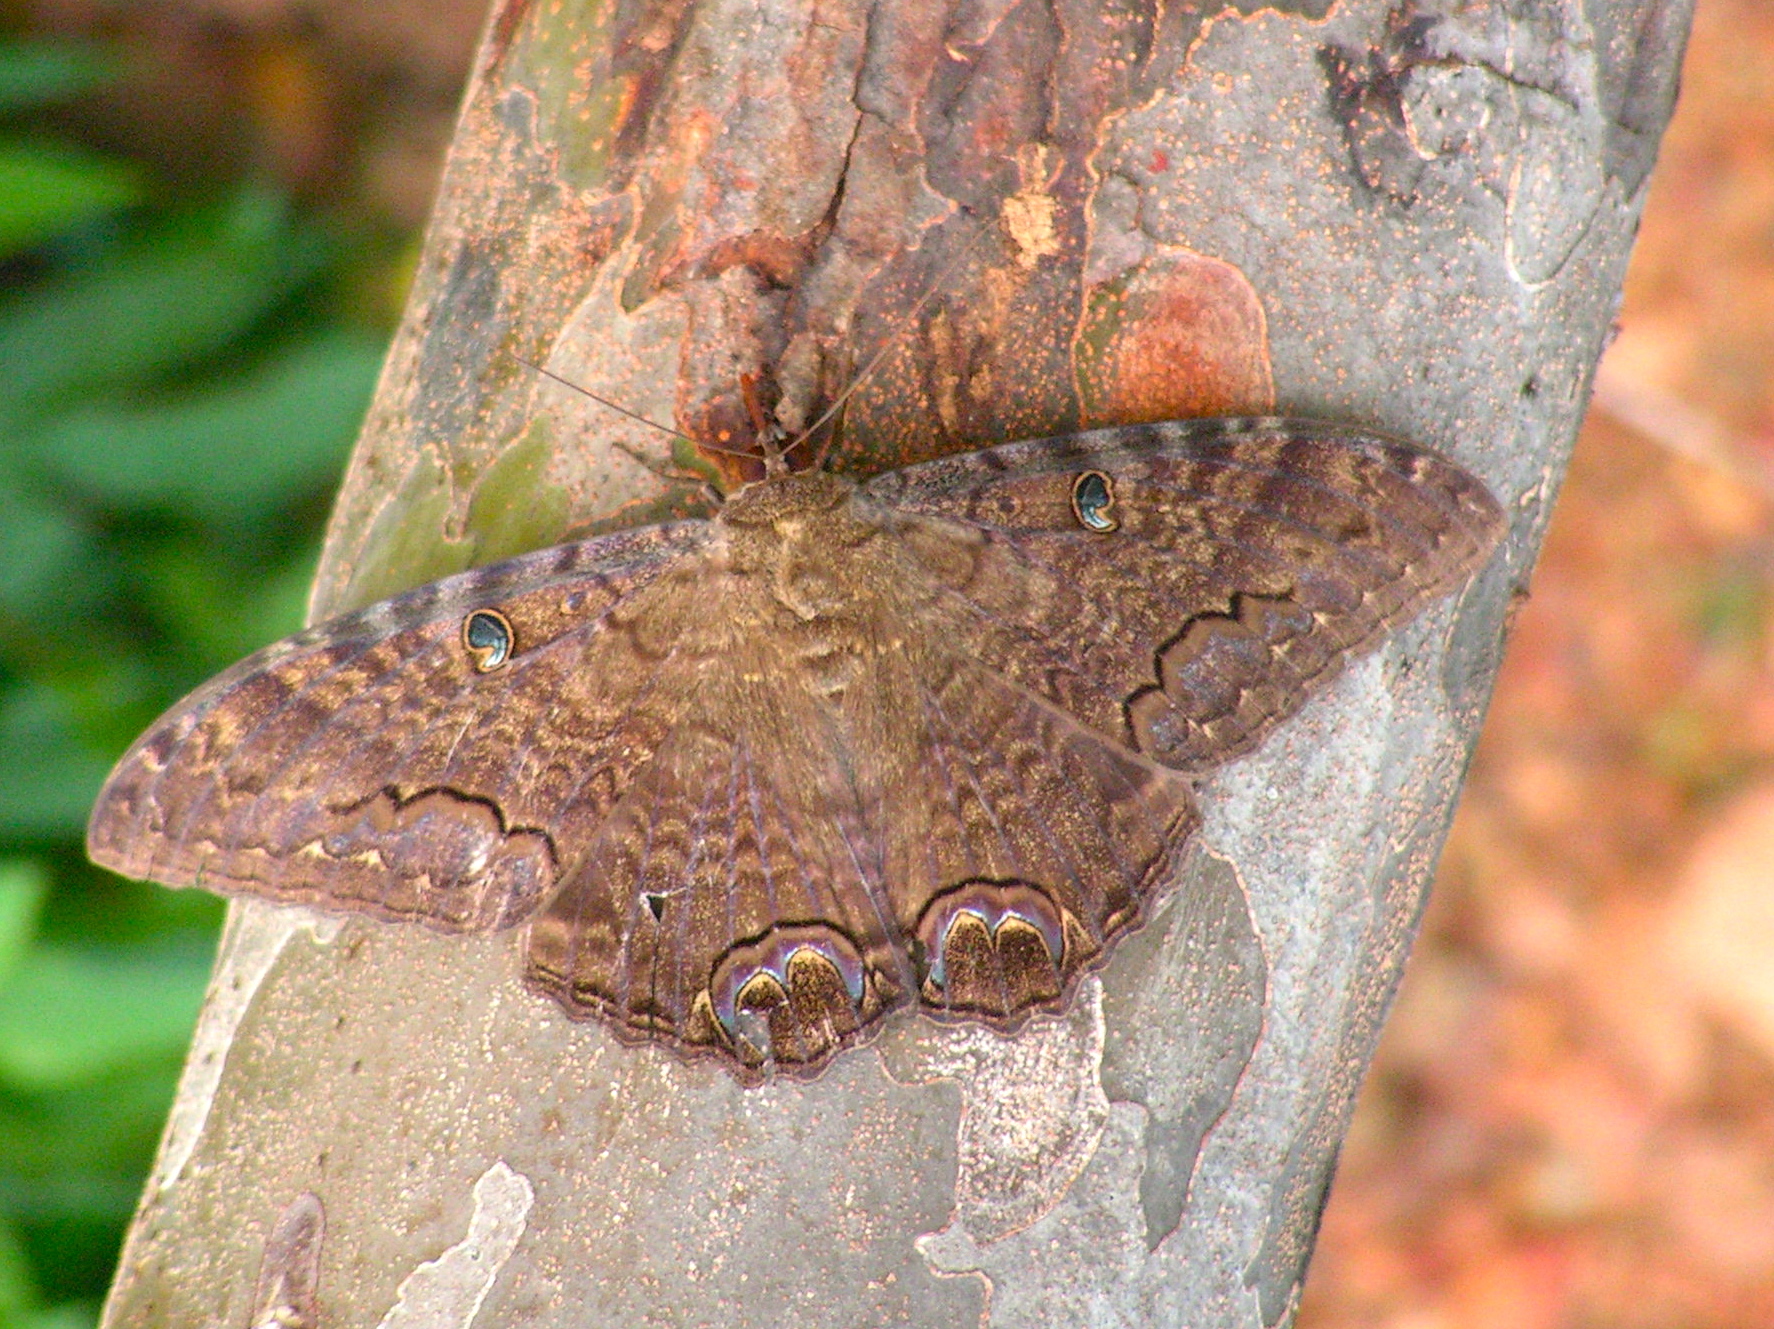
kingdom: Animalia
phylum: Arthropoda
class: Insecta
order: Lepidoptera
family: Erebidae
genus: Ascalapha
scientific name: Ascalapha odorata
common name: Black witch
